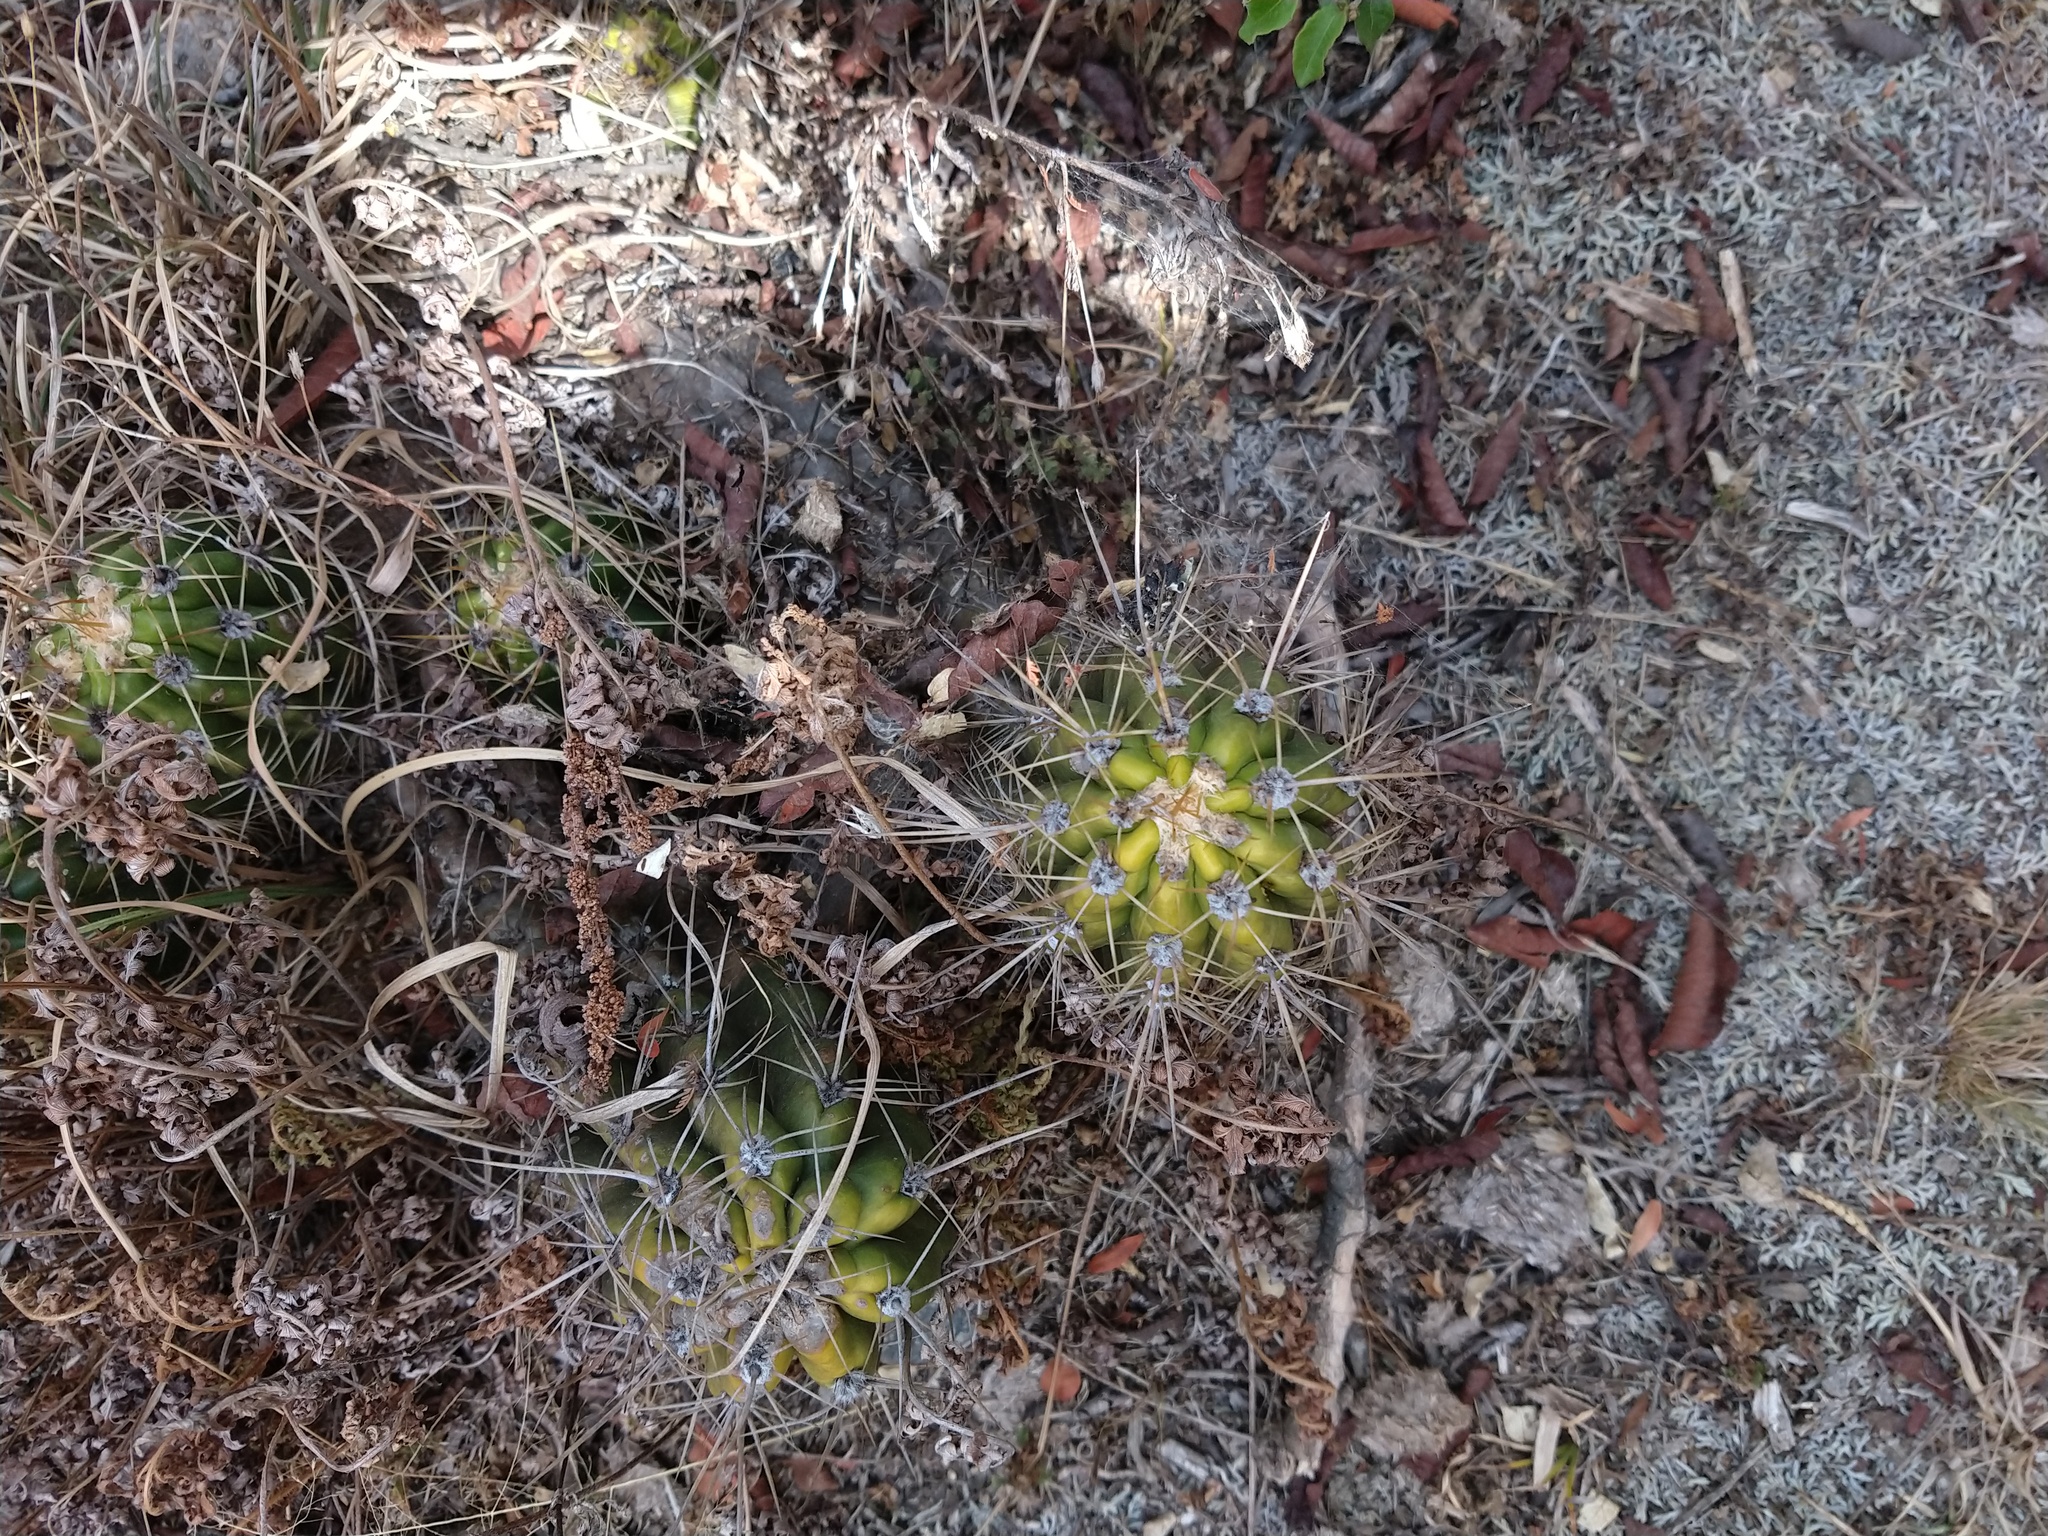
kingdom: Plantae
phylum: Tracheophyta
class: Magnoliopsida
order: Caryophyllales
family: Cactaceae
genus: Soehrensia
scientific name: Soehrensia candicans
